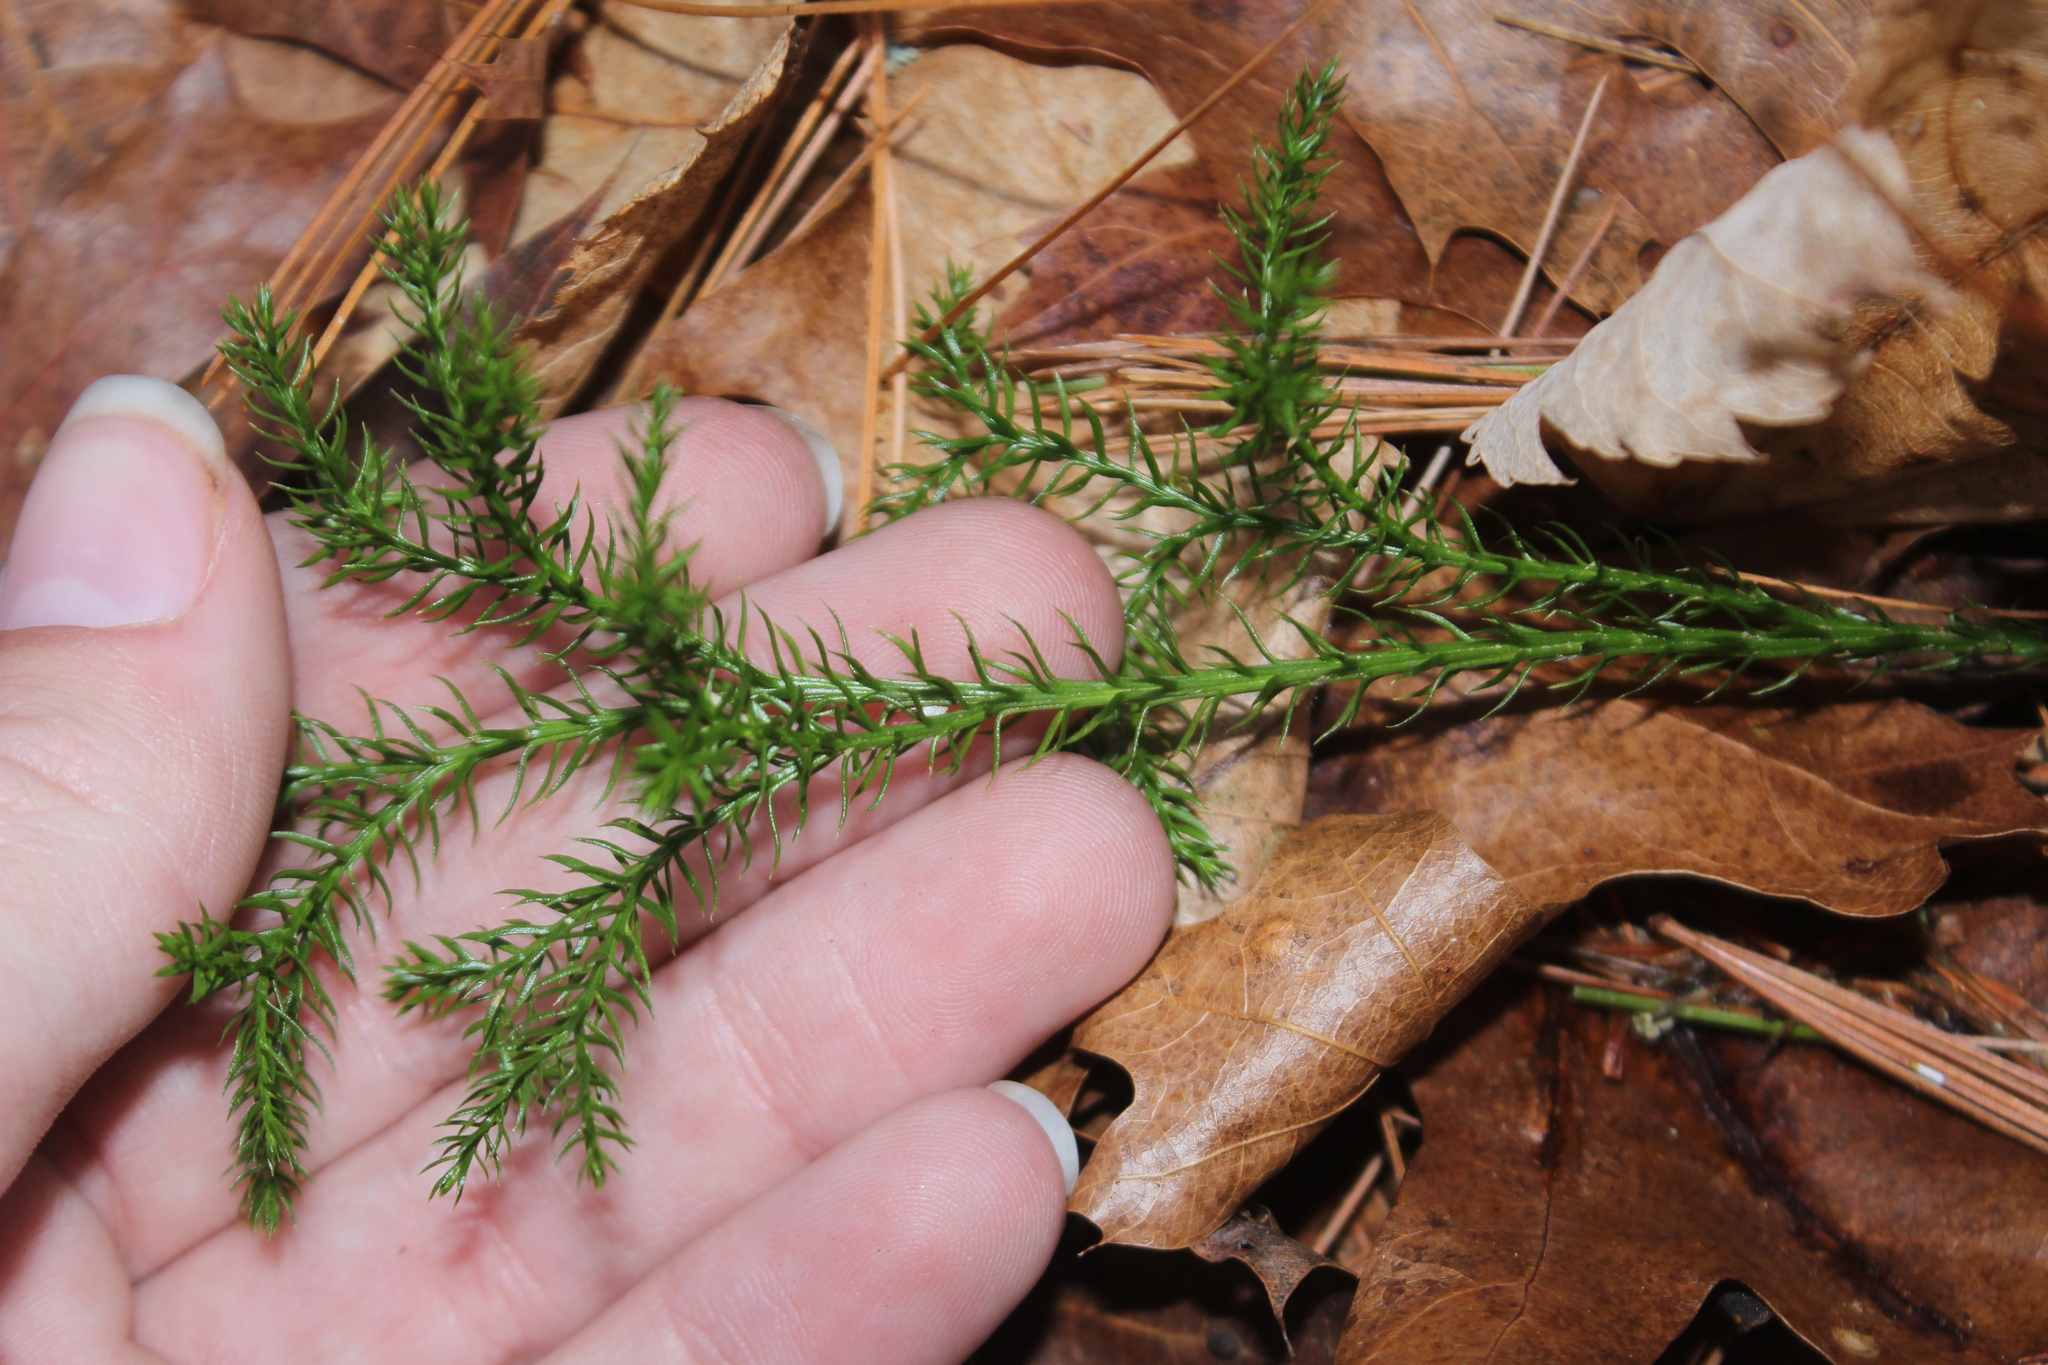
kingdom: Plantae
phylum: Tracheophyta
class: Lycopodiopsida
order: Lycopodiales
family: Lycopodiaceae
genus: Dendrolycopodium
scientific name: Dendrolycopodium dendroideum
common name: Northern tree-clubmoss
